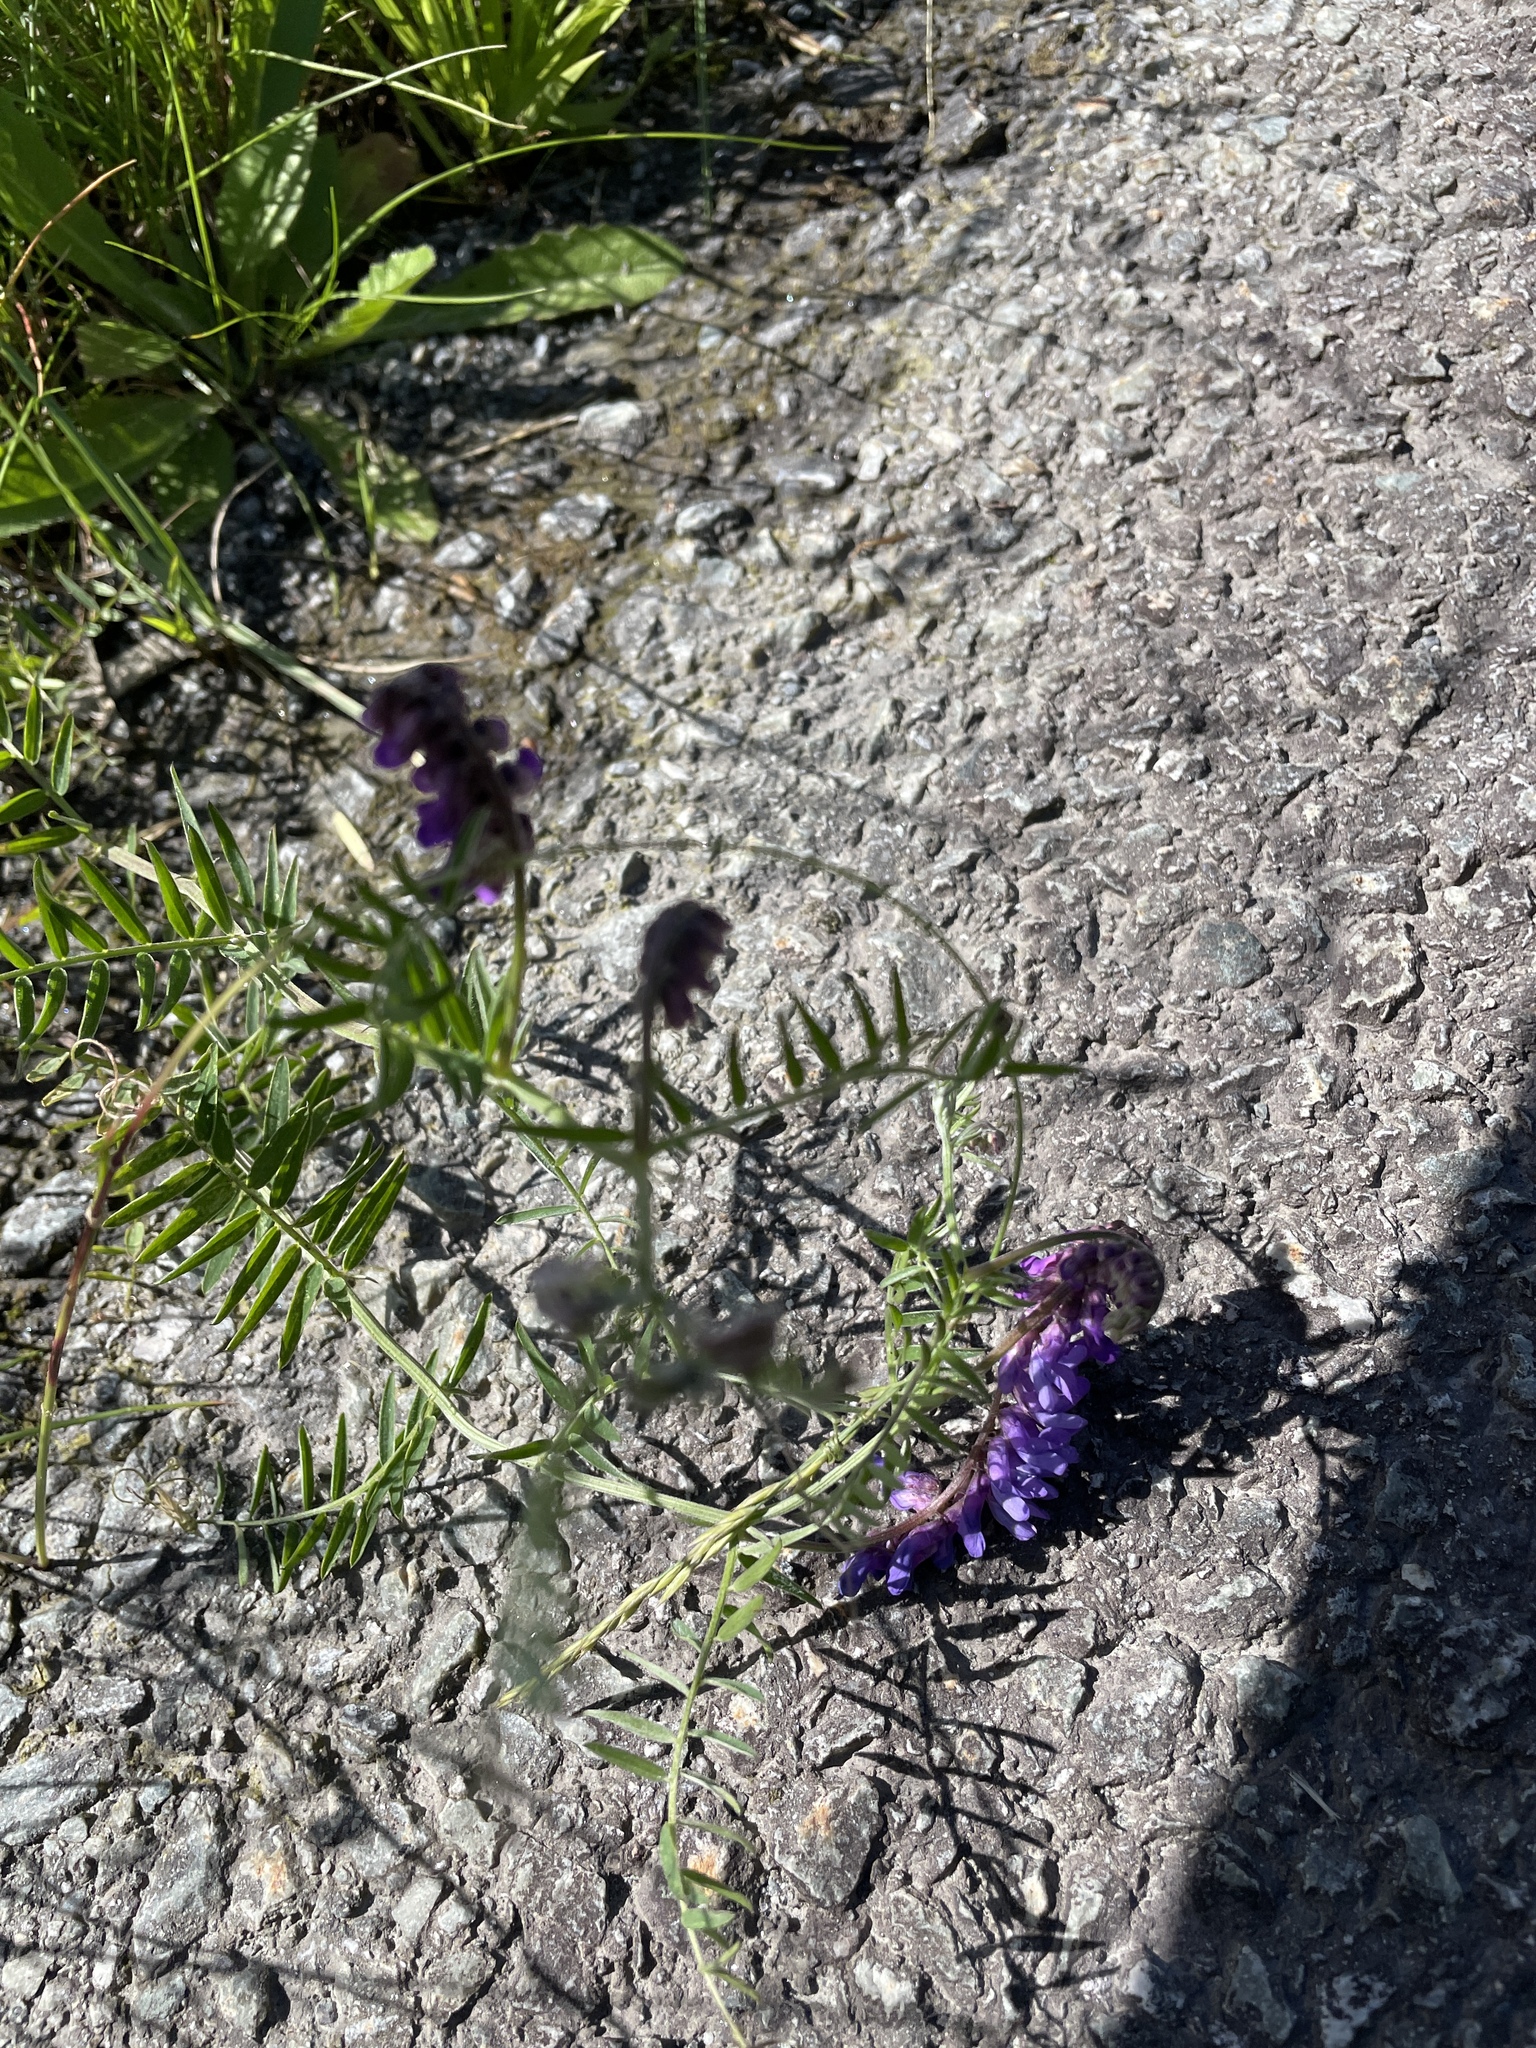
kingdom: Plantae
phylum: Tracheophyta
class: Magnoliopsida
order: Fabales
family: Fabaceae
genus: Vicia
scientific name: Vicia cracca
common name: Bird vetch
